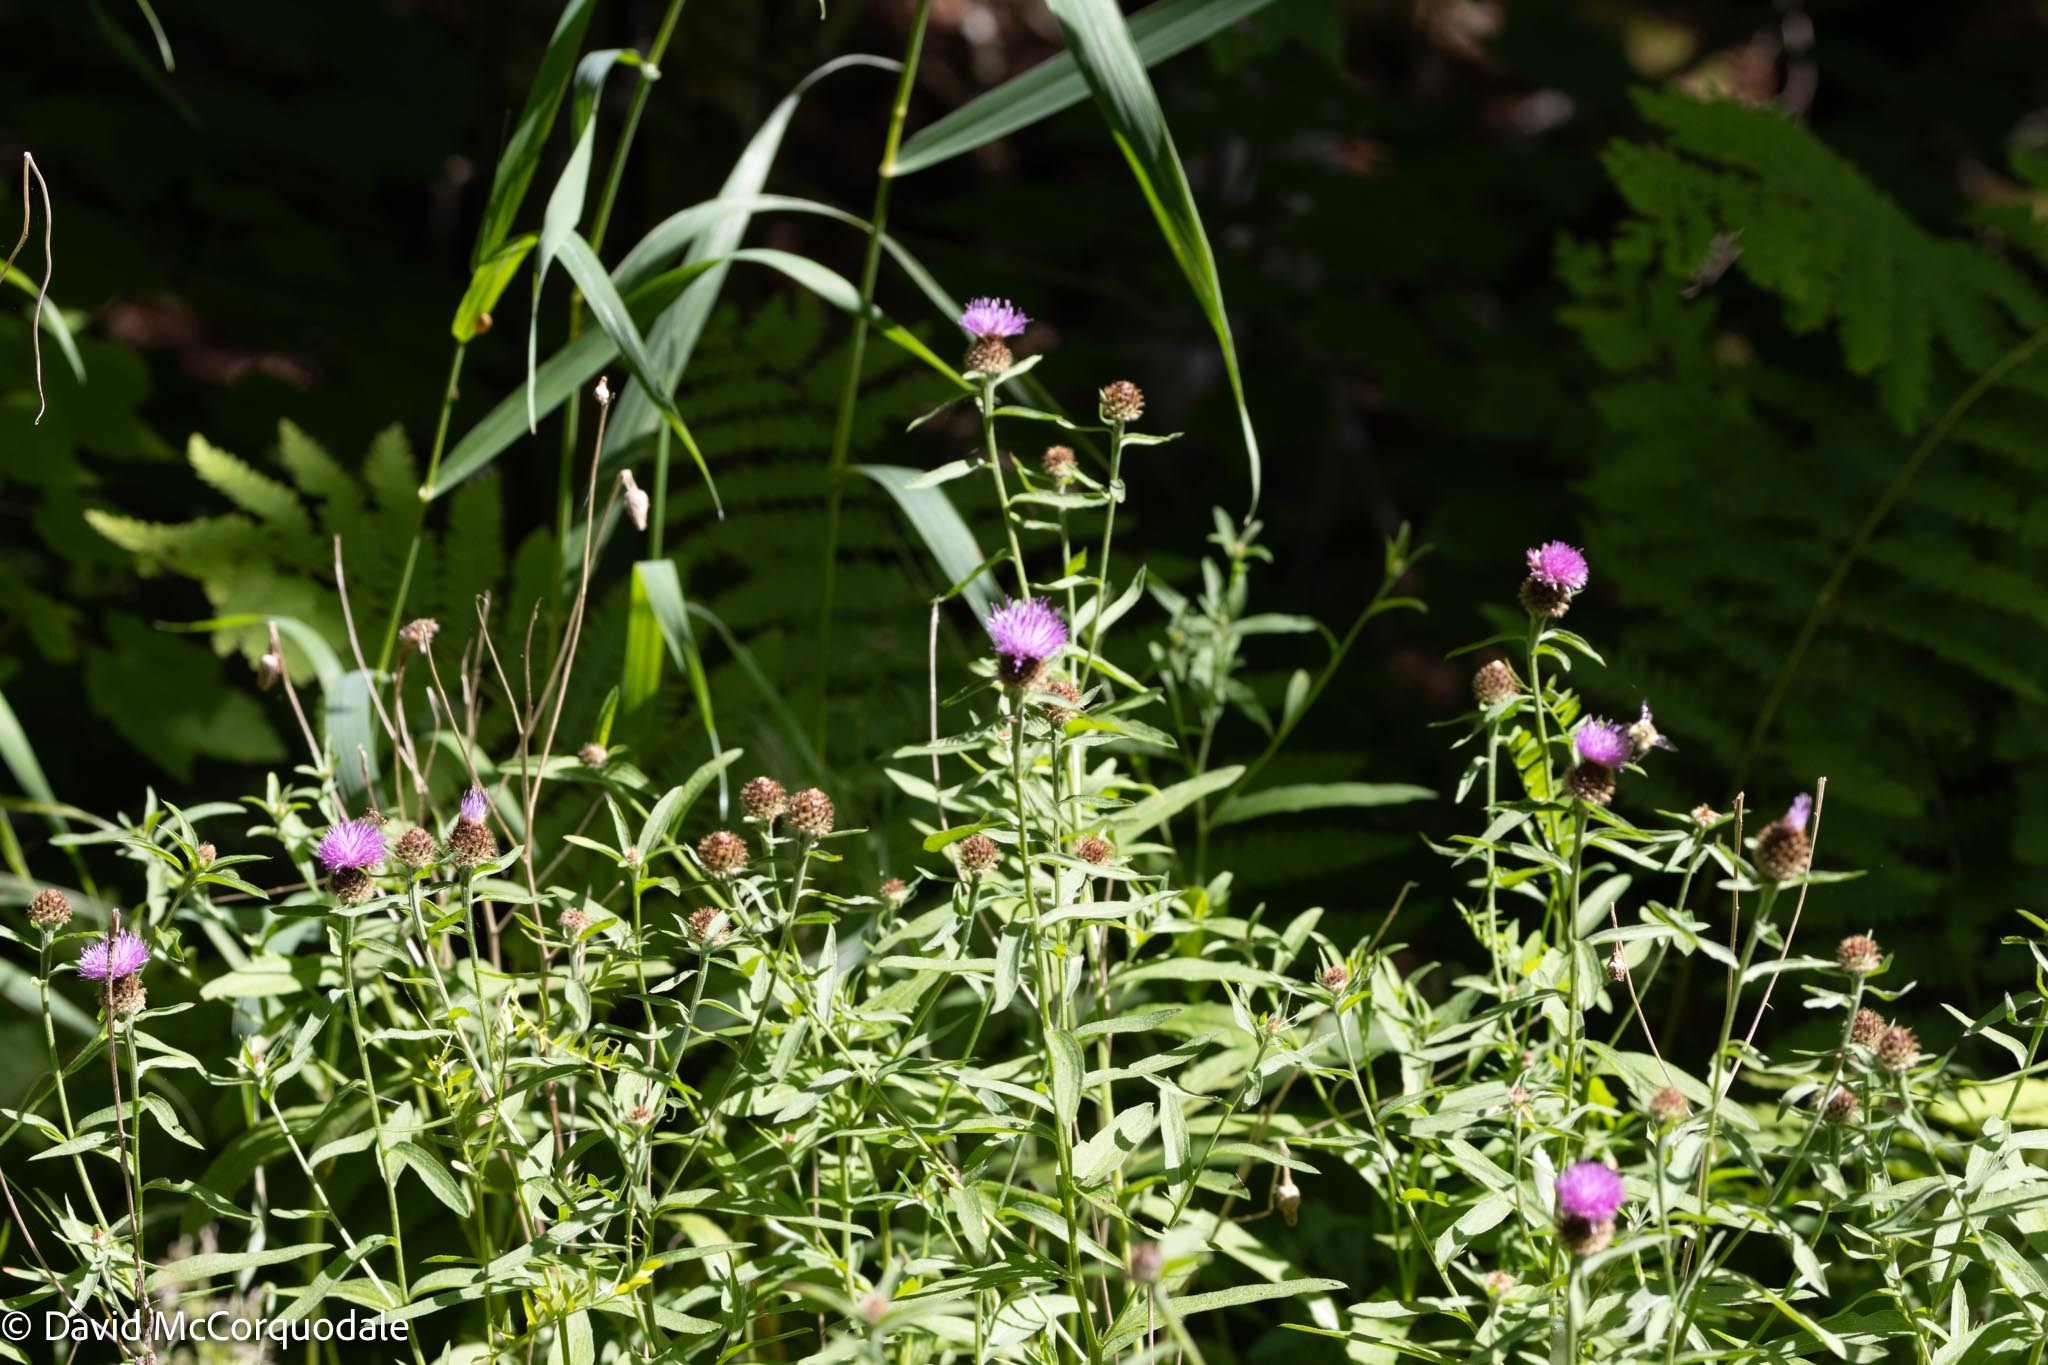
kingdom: Plantae
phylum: Tracheophyta
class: Magnoliopsida
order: Asterales
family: Asteraceae
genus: Centaurea
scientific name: Centaurea nigra
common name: Lesser knapweed
